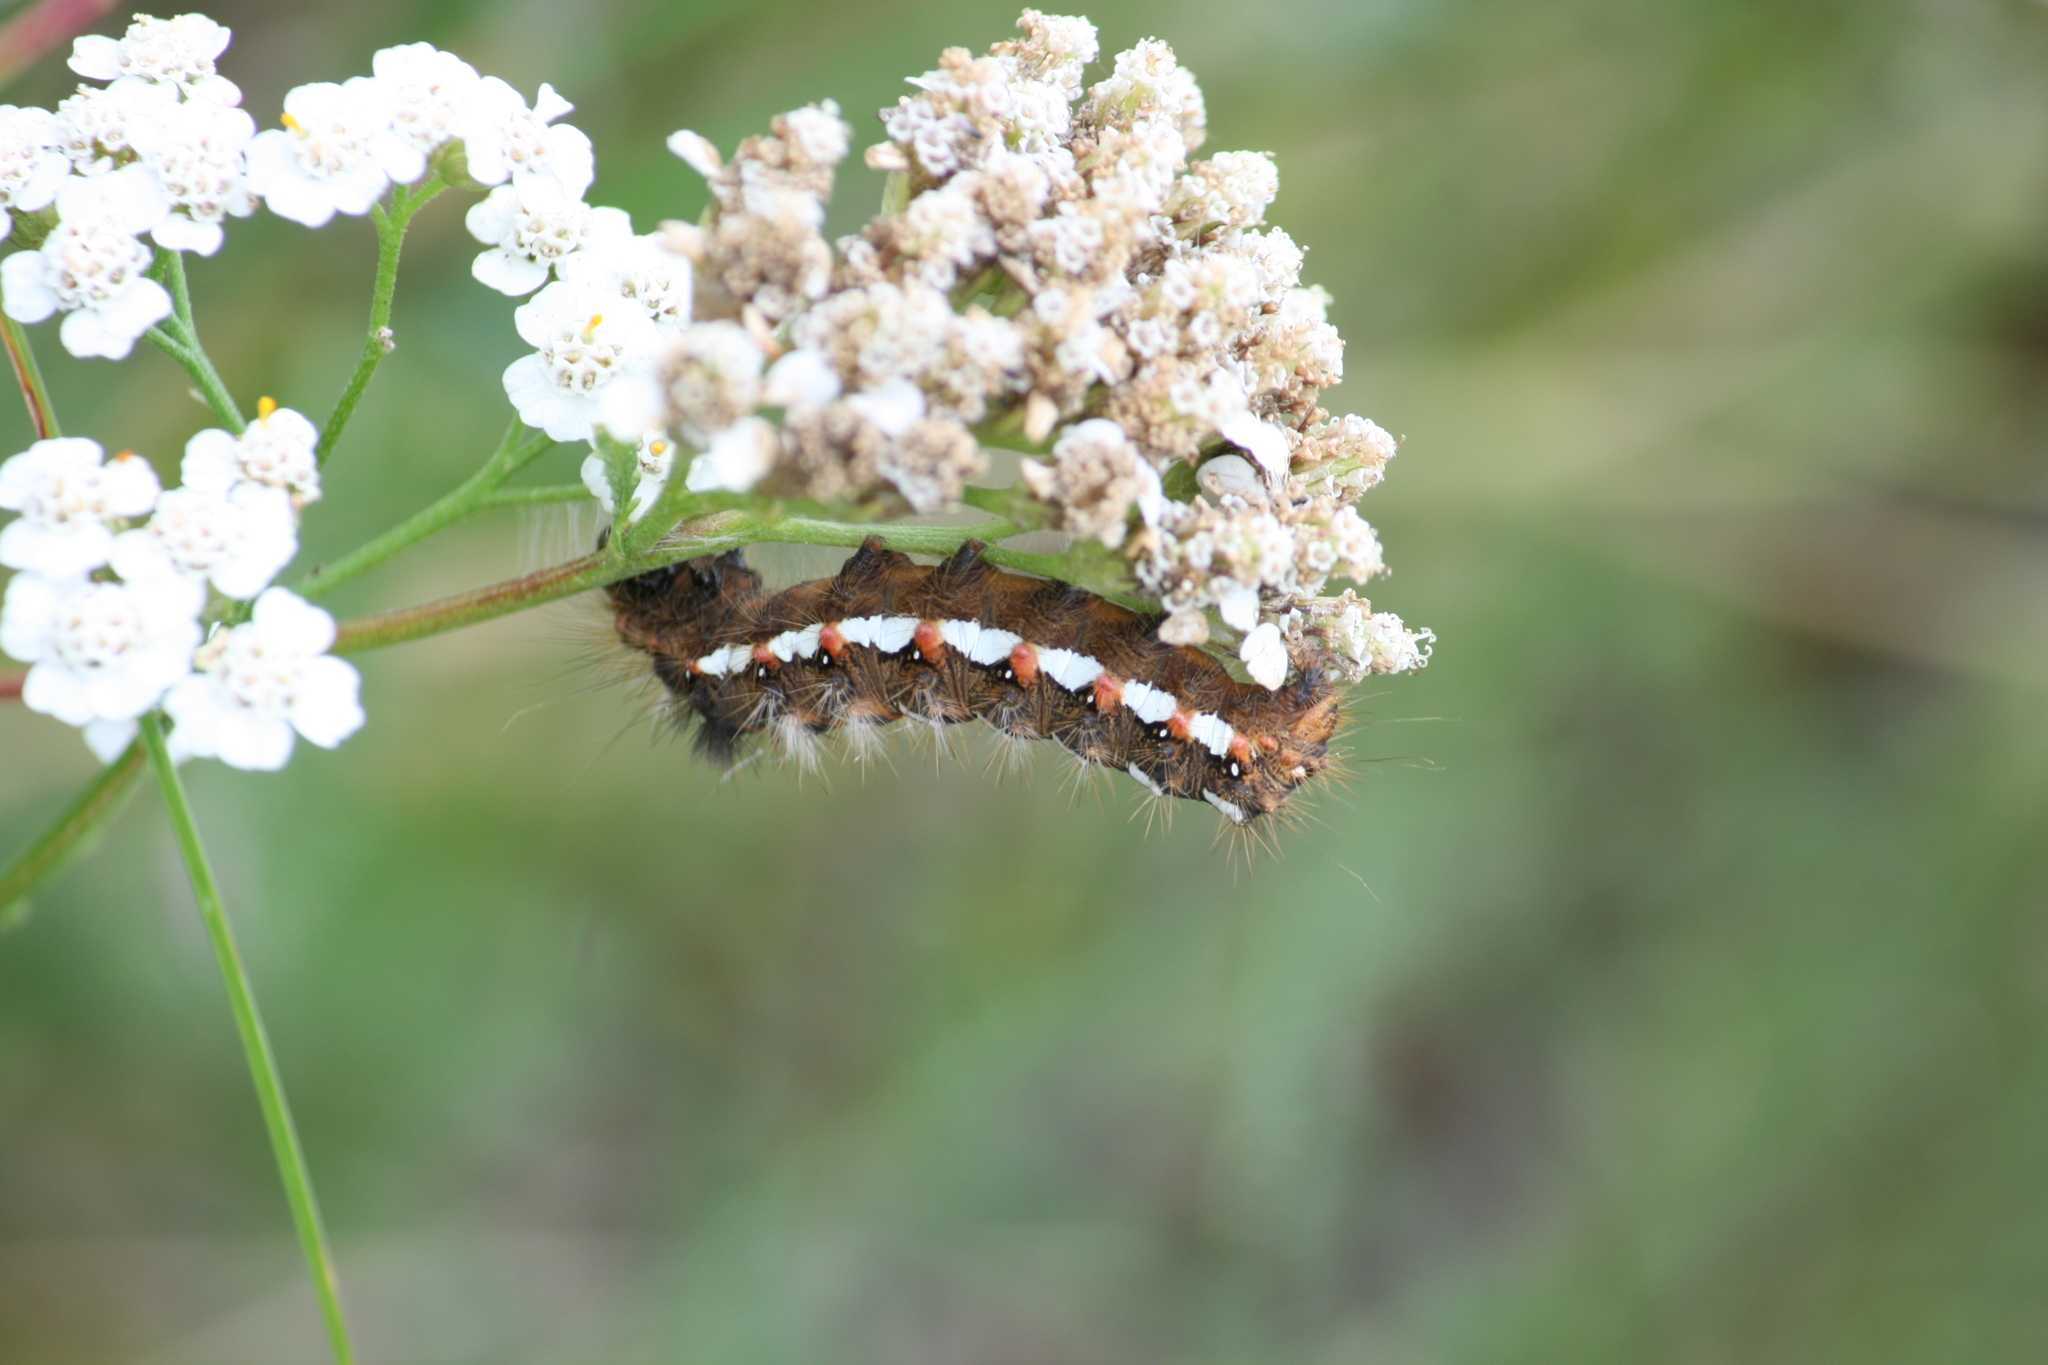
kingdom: Animalia
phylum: Arthropoda
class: Insecta
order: Lepidoptera
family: Noctuidae
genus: Acronicta
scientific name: Acronicta rumicis
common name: Knot grass
